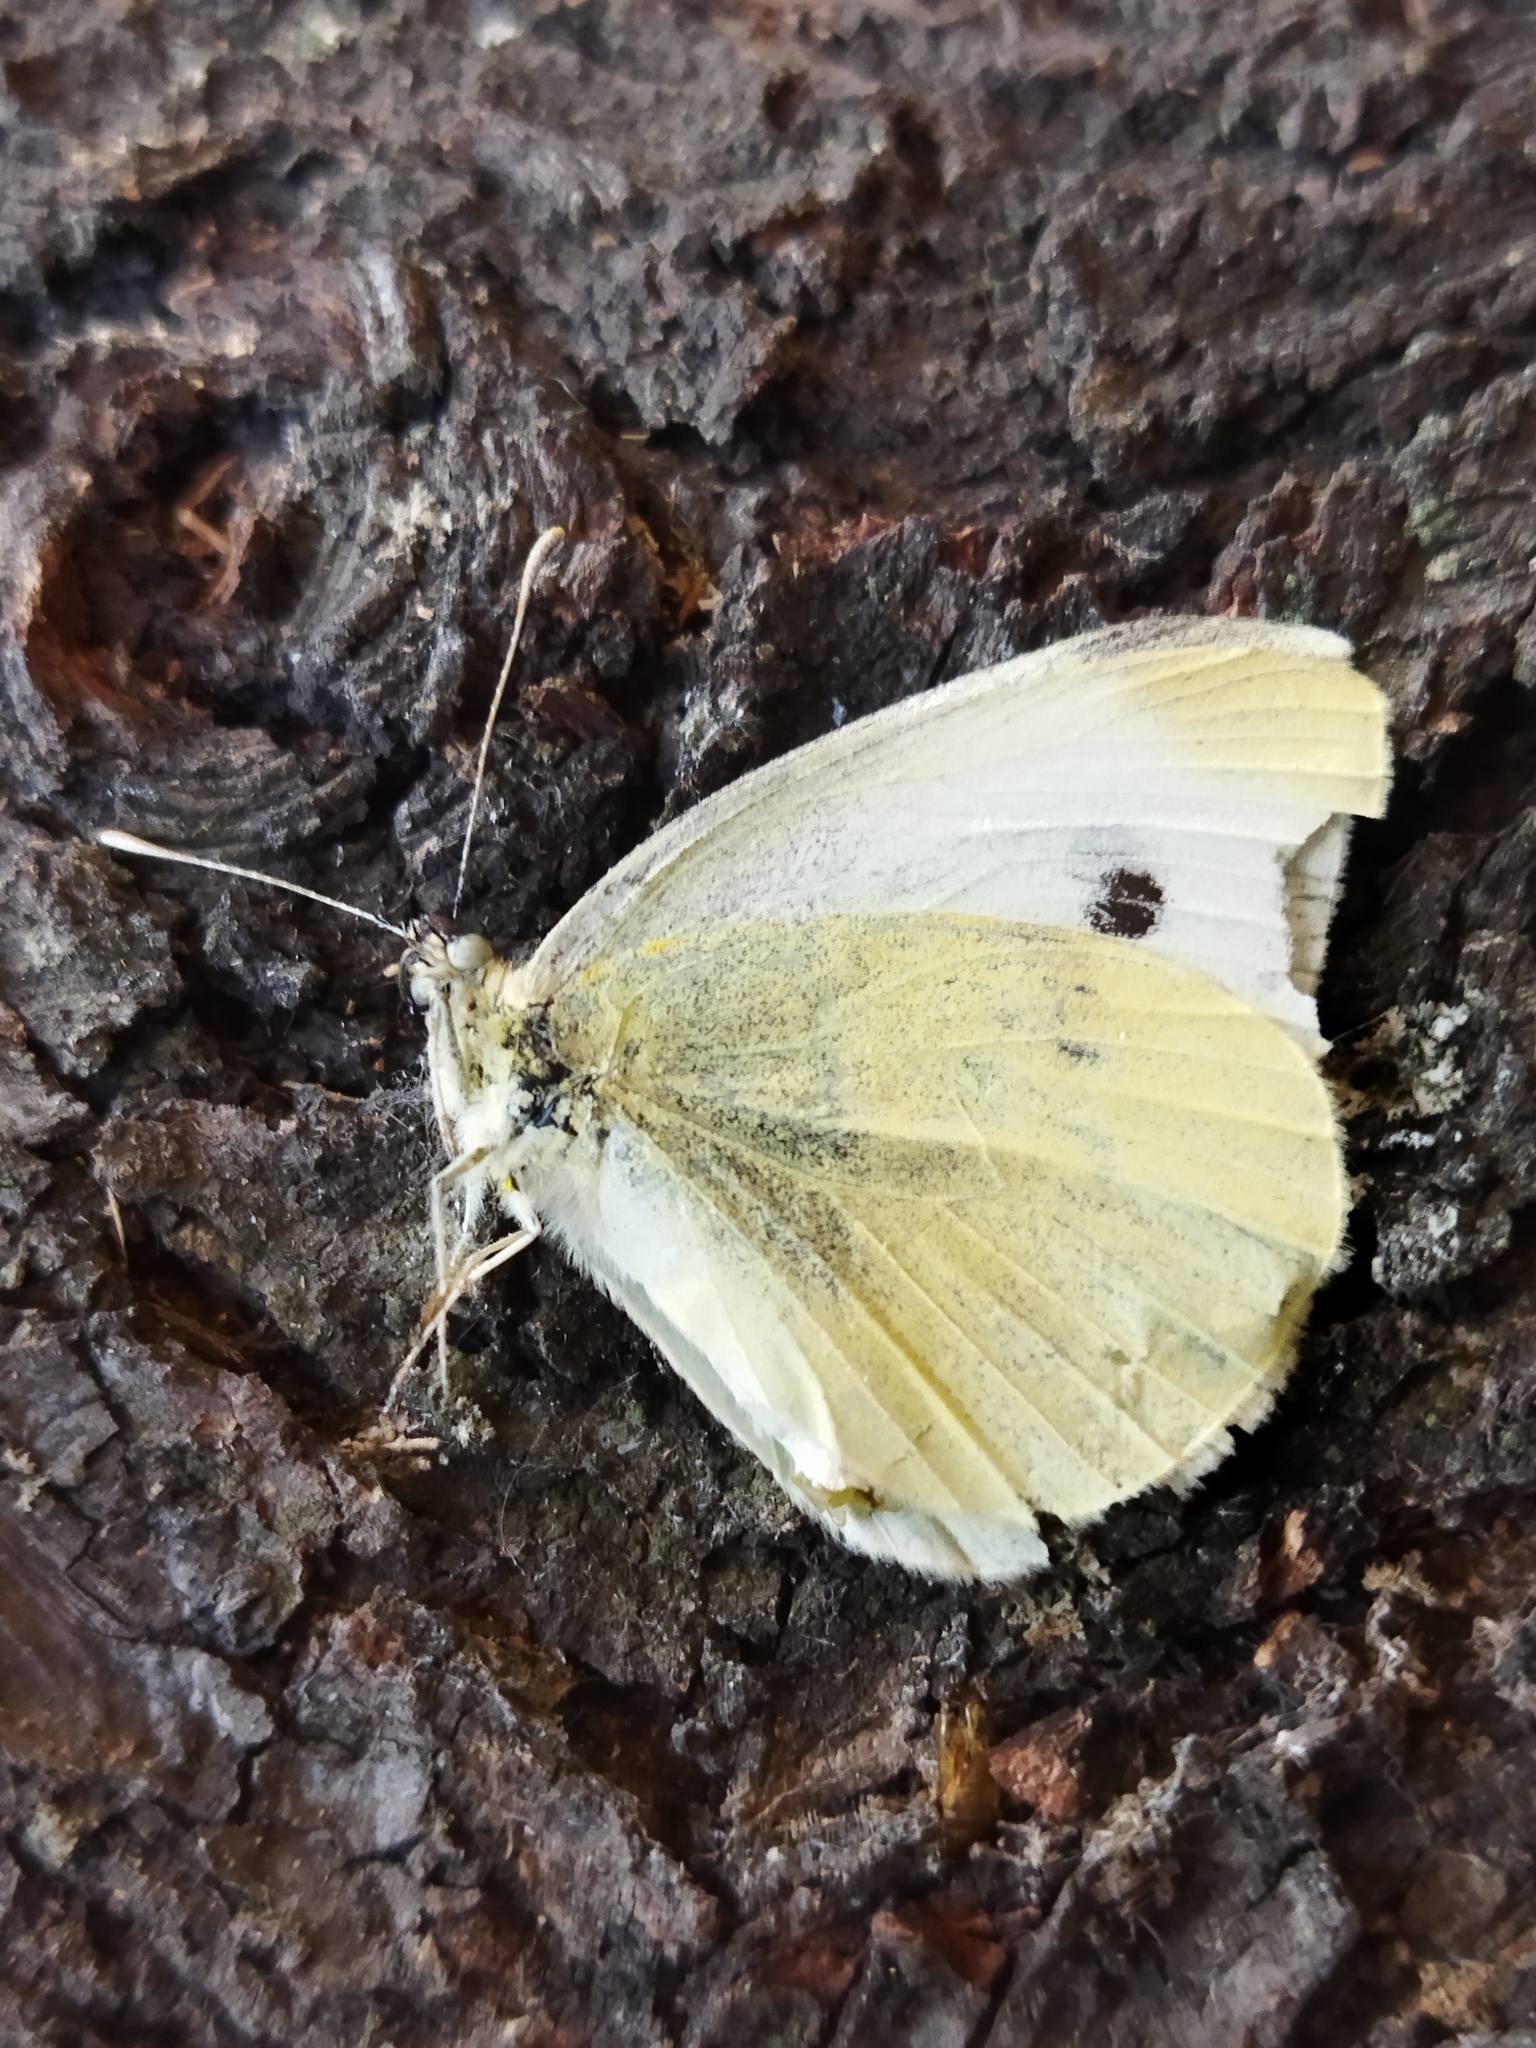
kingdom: Animalia
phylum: Arthropoda
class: Insecta
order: Lepidoptera
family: Pieridae
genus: Pieris
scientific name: Pieris rapae
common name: Small white
